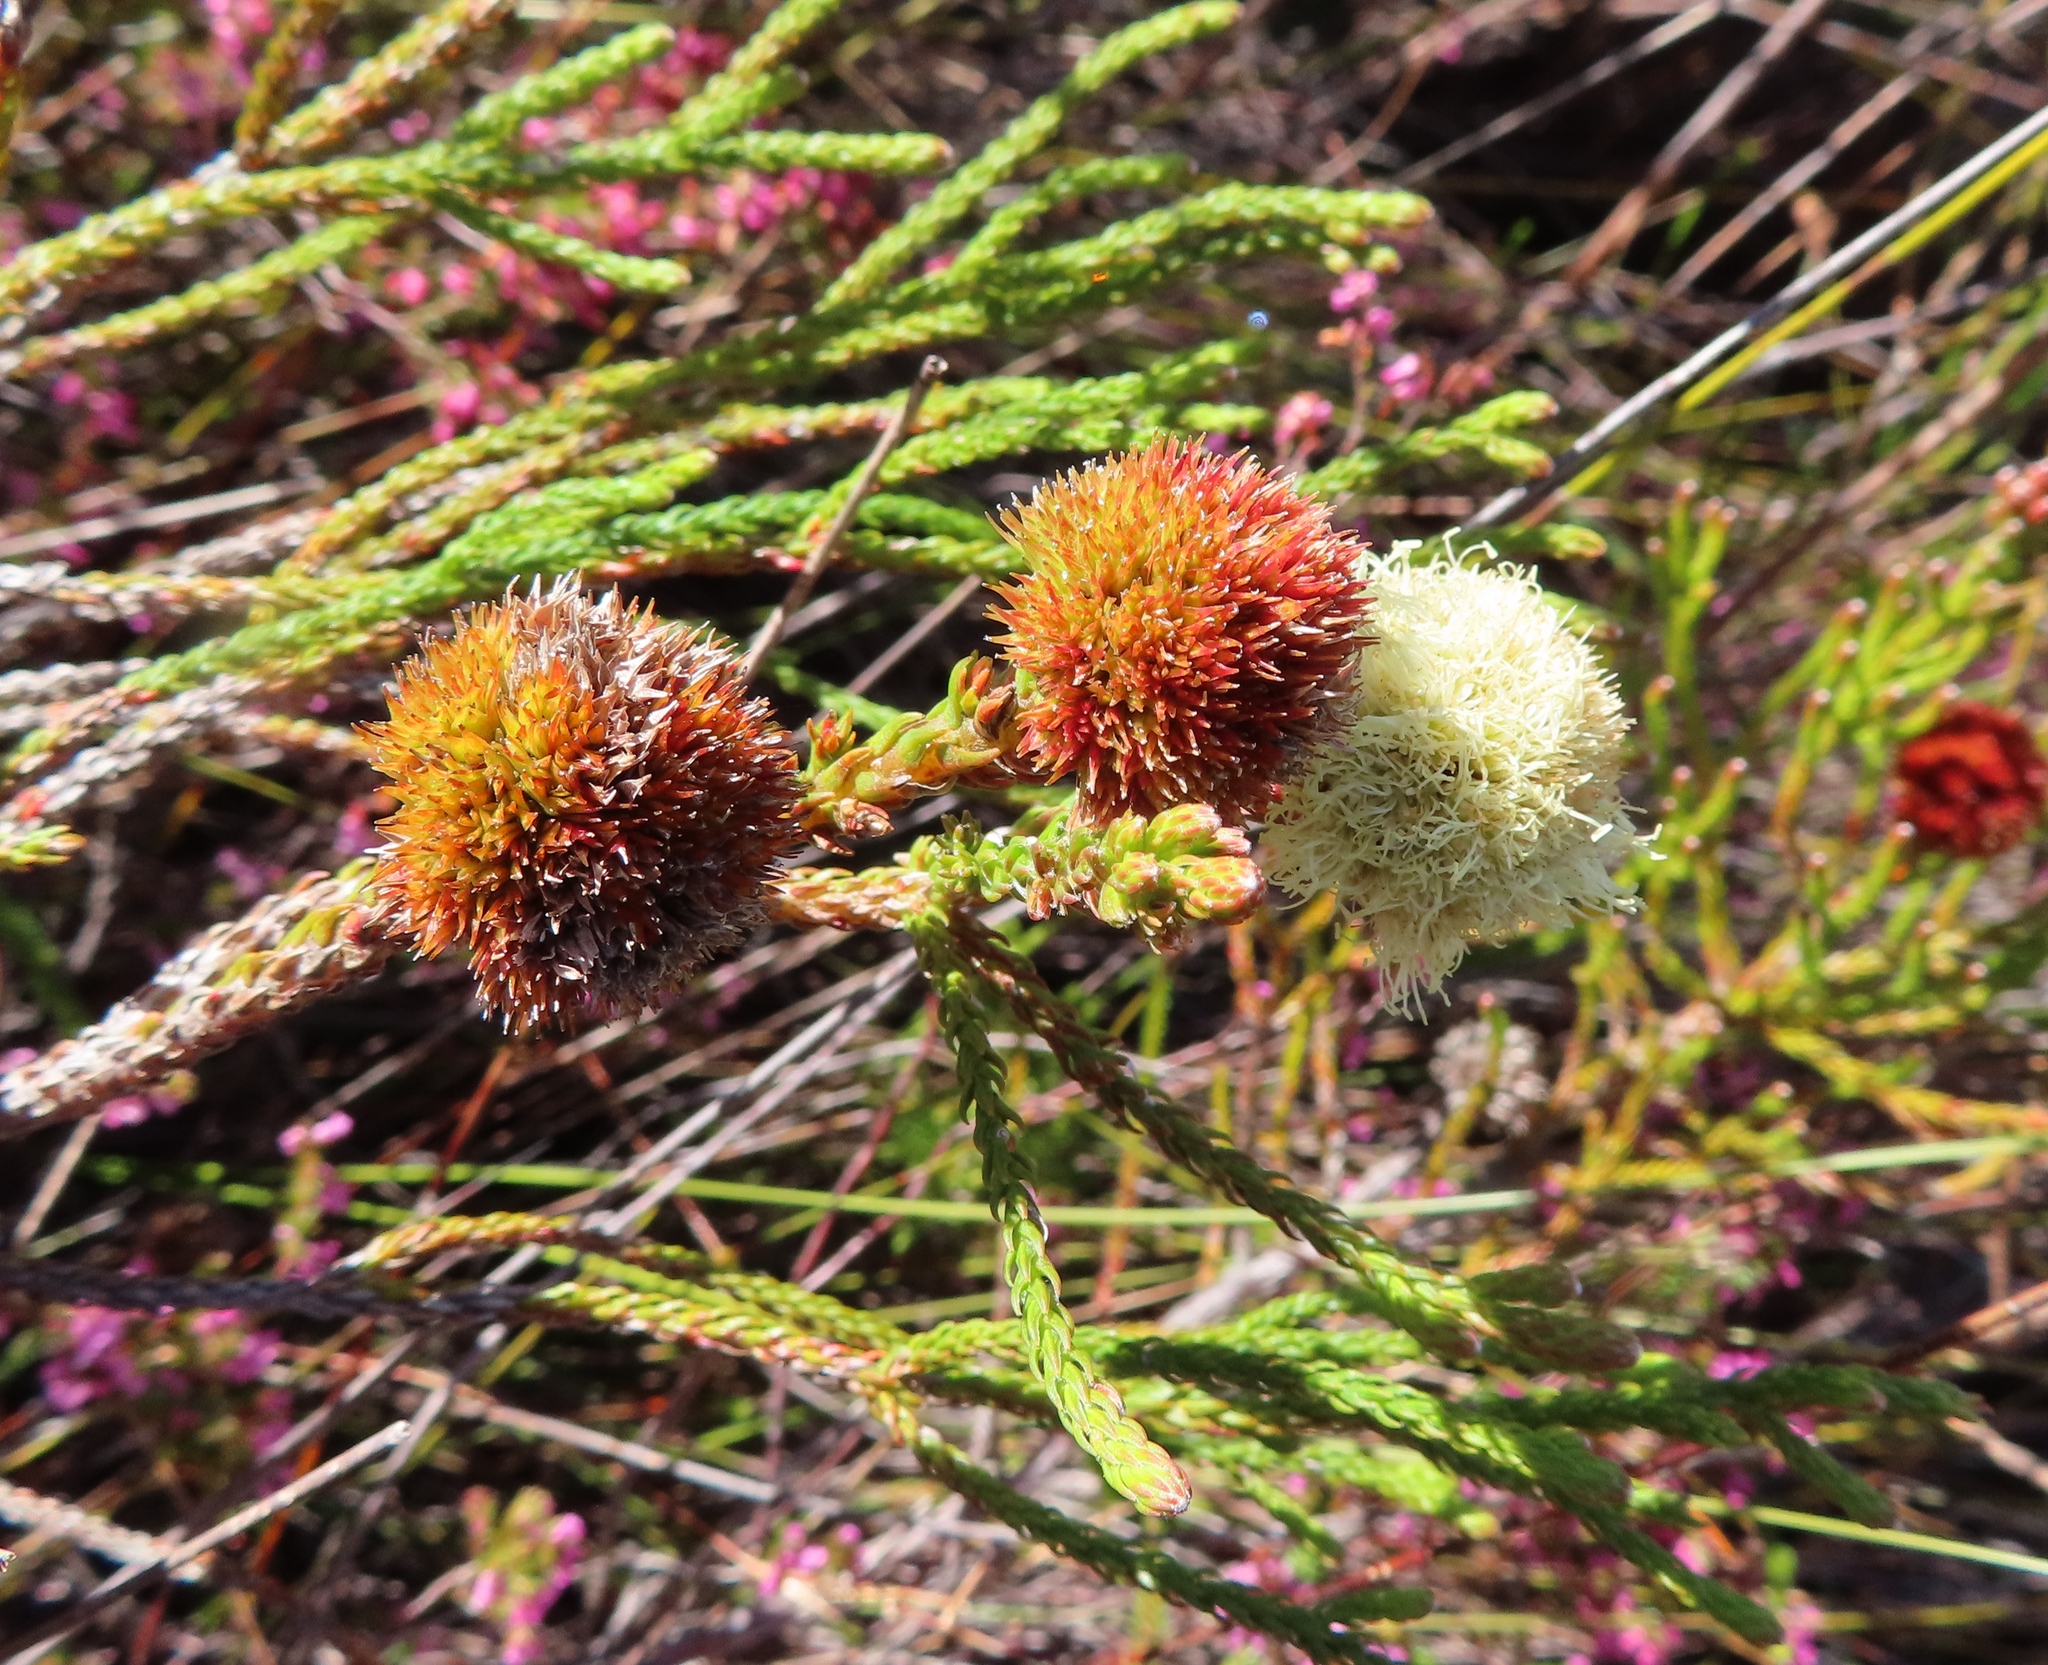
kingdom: Plantae
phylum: Tracheophyta
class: Magnoliopsida
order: Bruniales
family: Bruniaceae
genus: Brunia
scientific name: Brunia fragarioides
